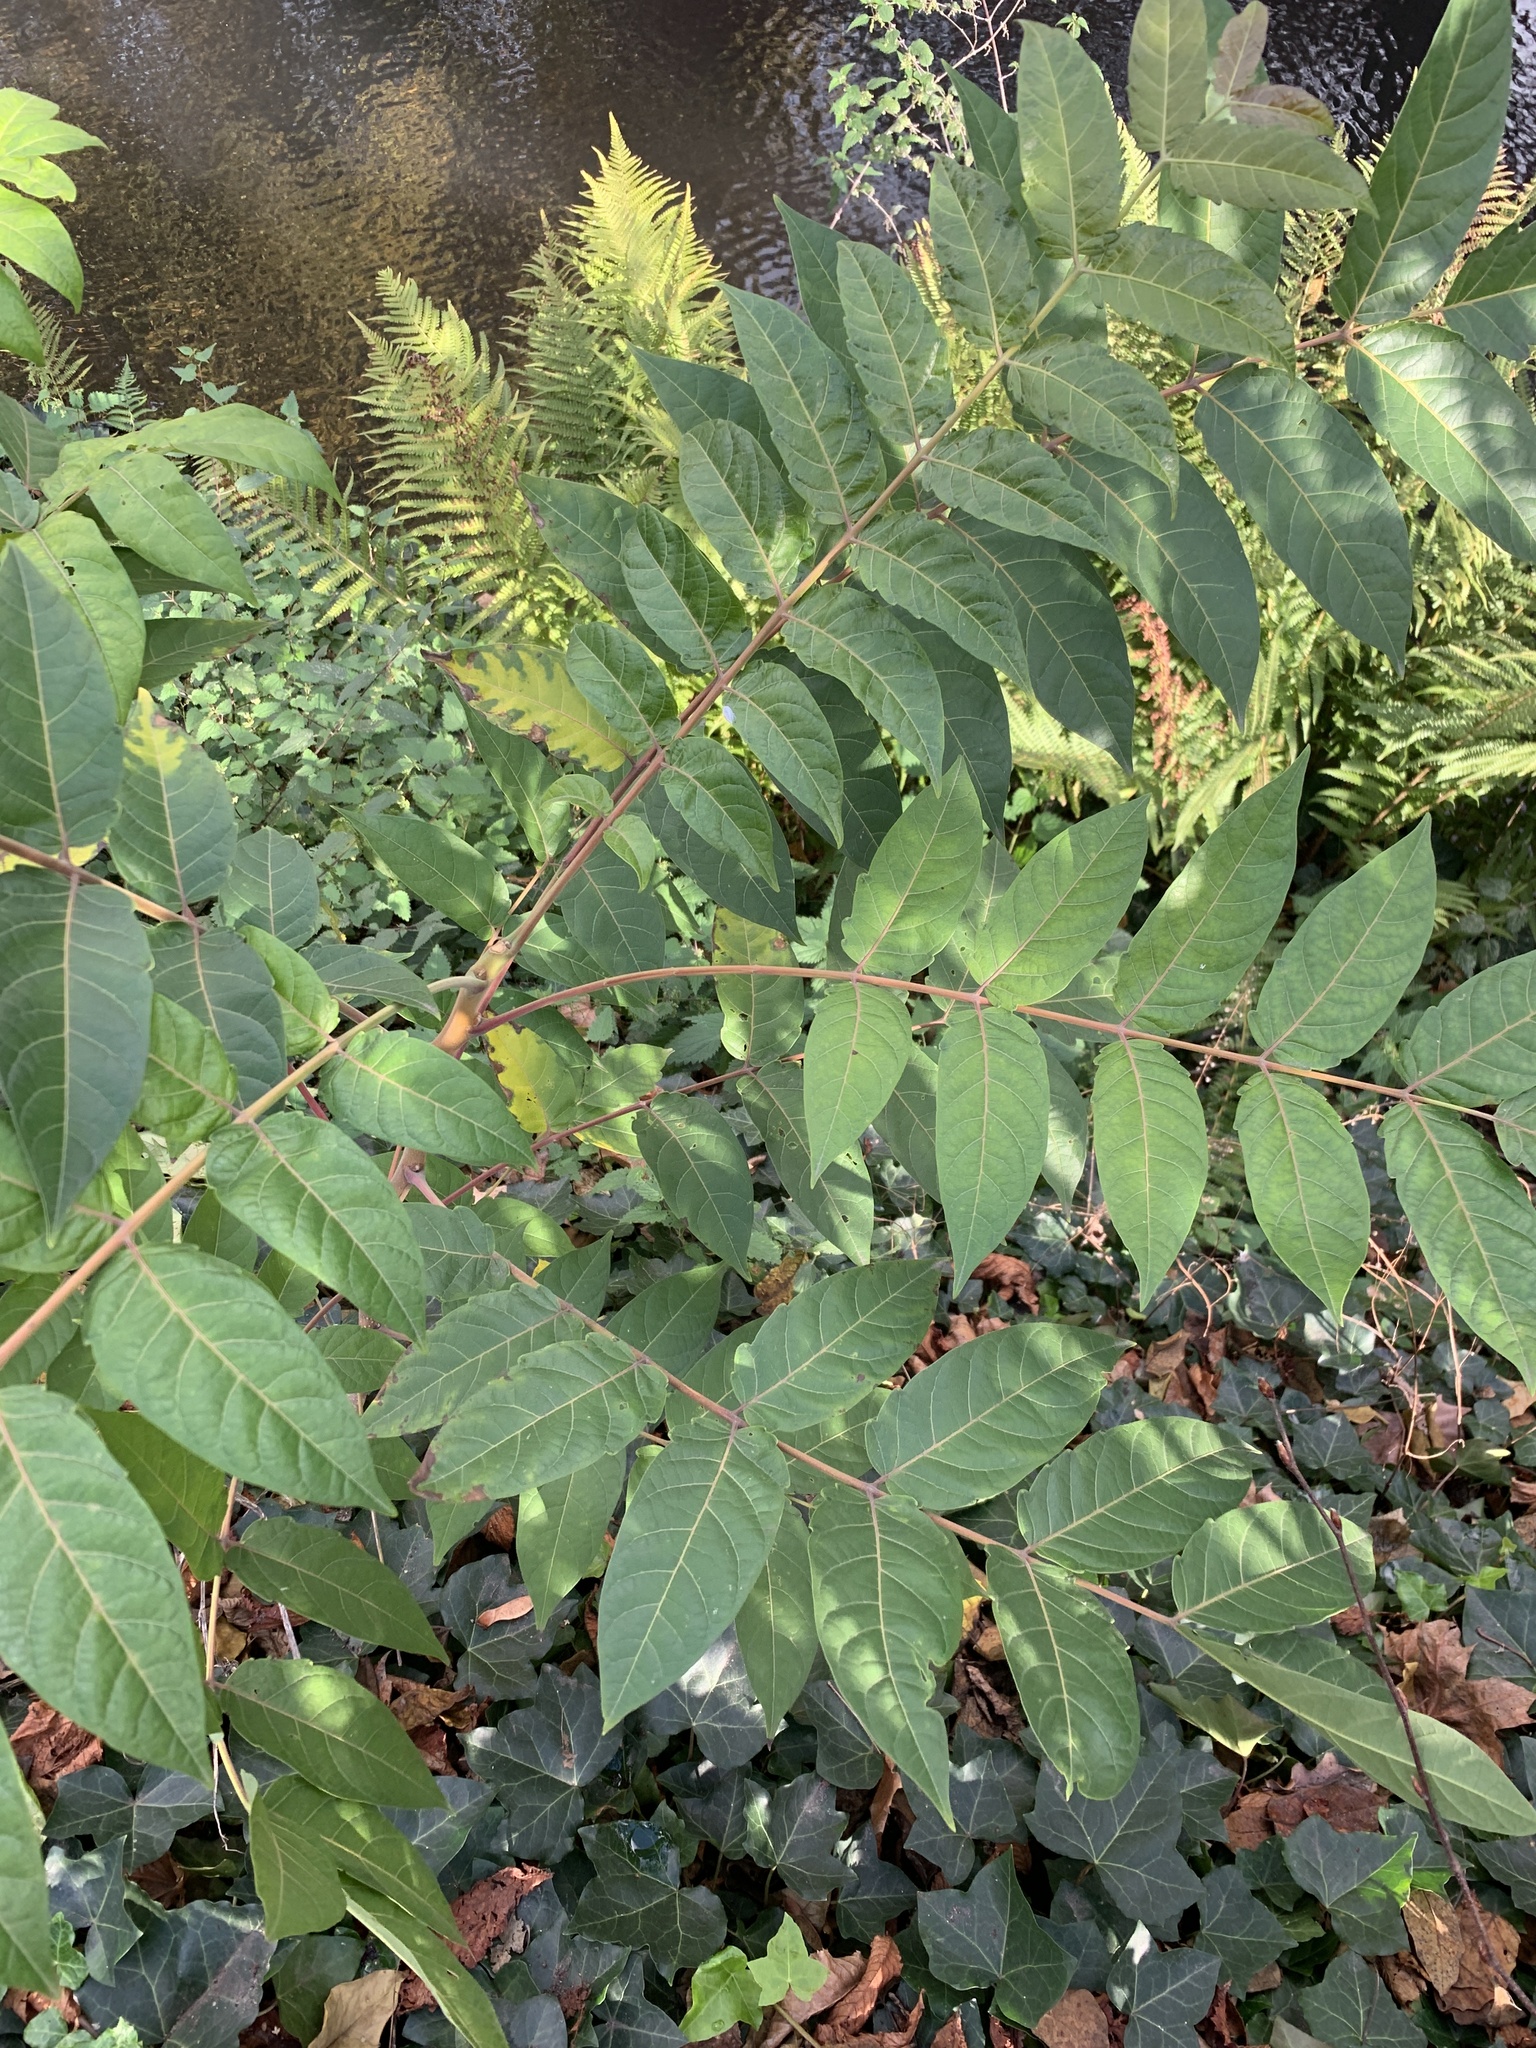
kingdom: Plantae
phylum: Tracheophyta
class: Magnoliopsida
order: Sapindales
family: Simaroubaceae
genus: Ailanthus
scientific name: Ailanthus altissima
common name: Tree-of-heaven
